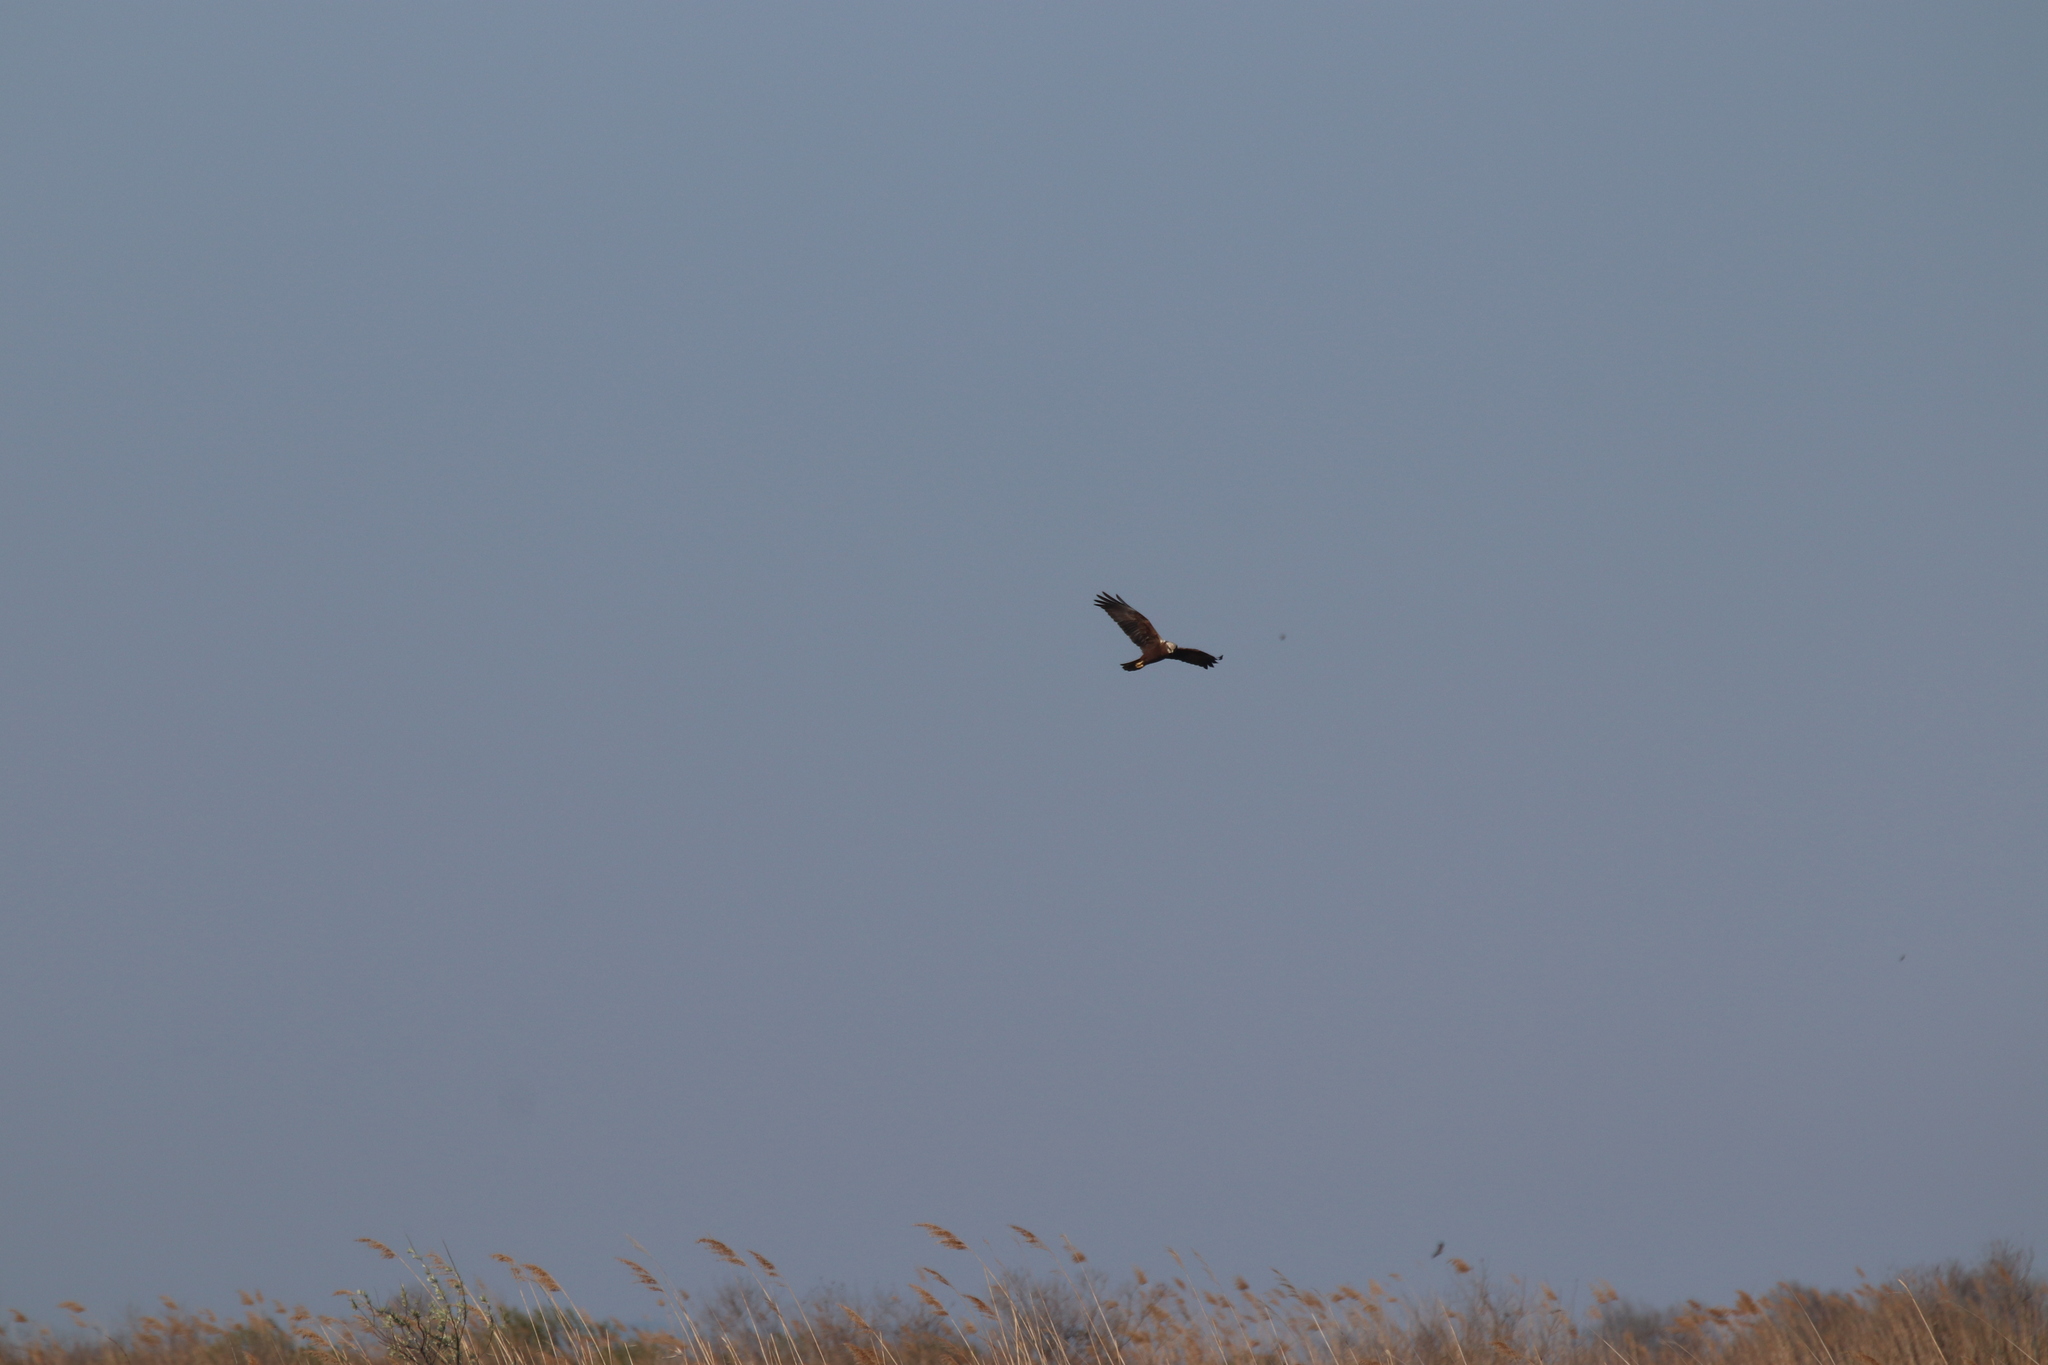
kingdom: Animalia
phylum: Chordata
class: Aves
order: Accipitriformes
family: Accipitridae
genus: Circus
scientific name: Circus aeruginosus
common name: Western marsh harrier
